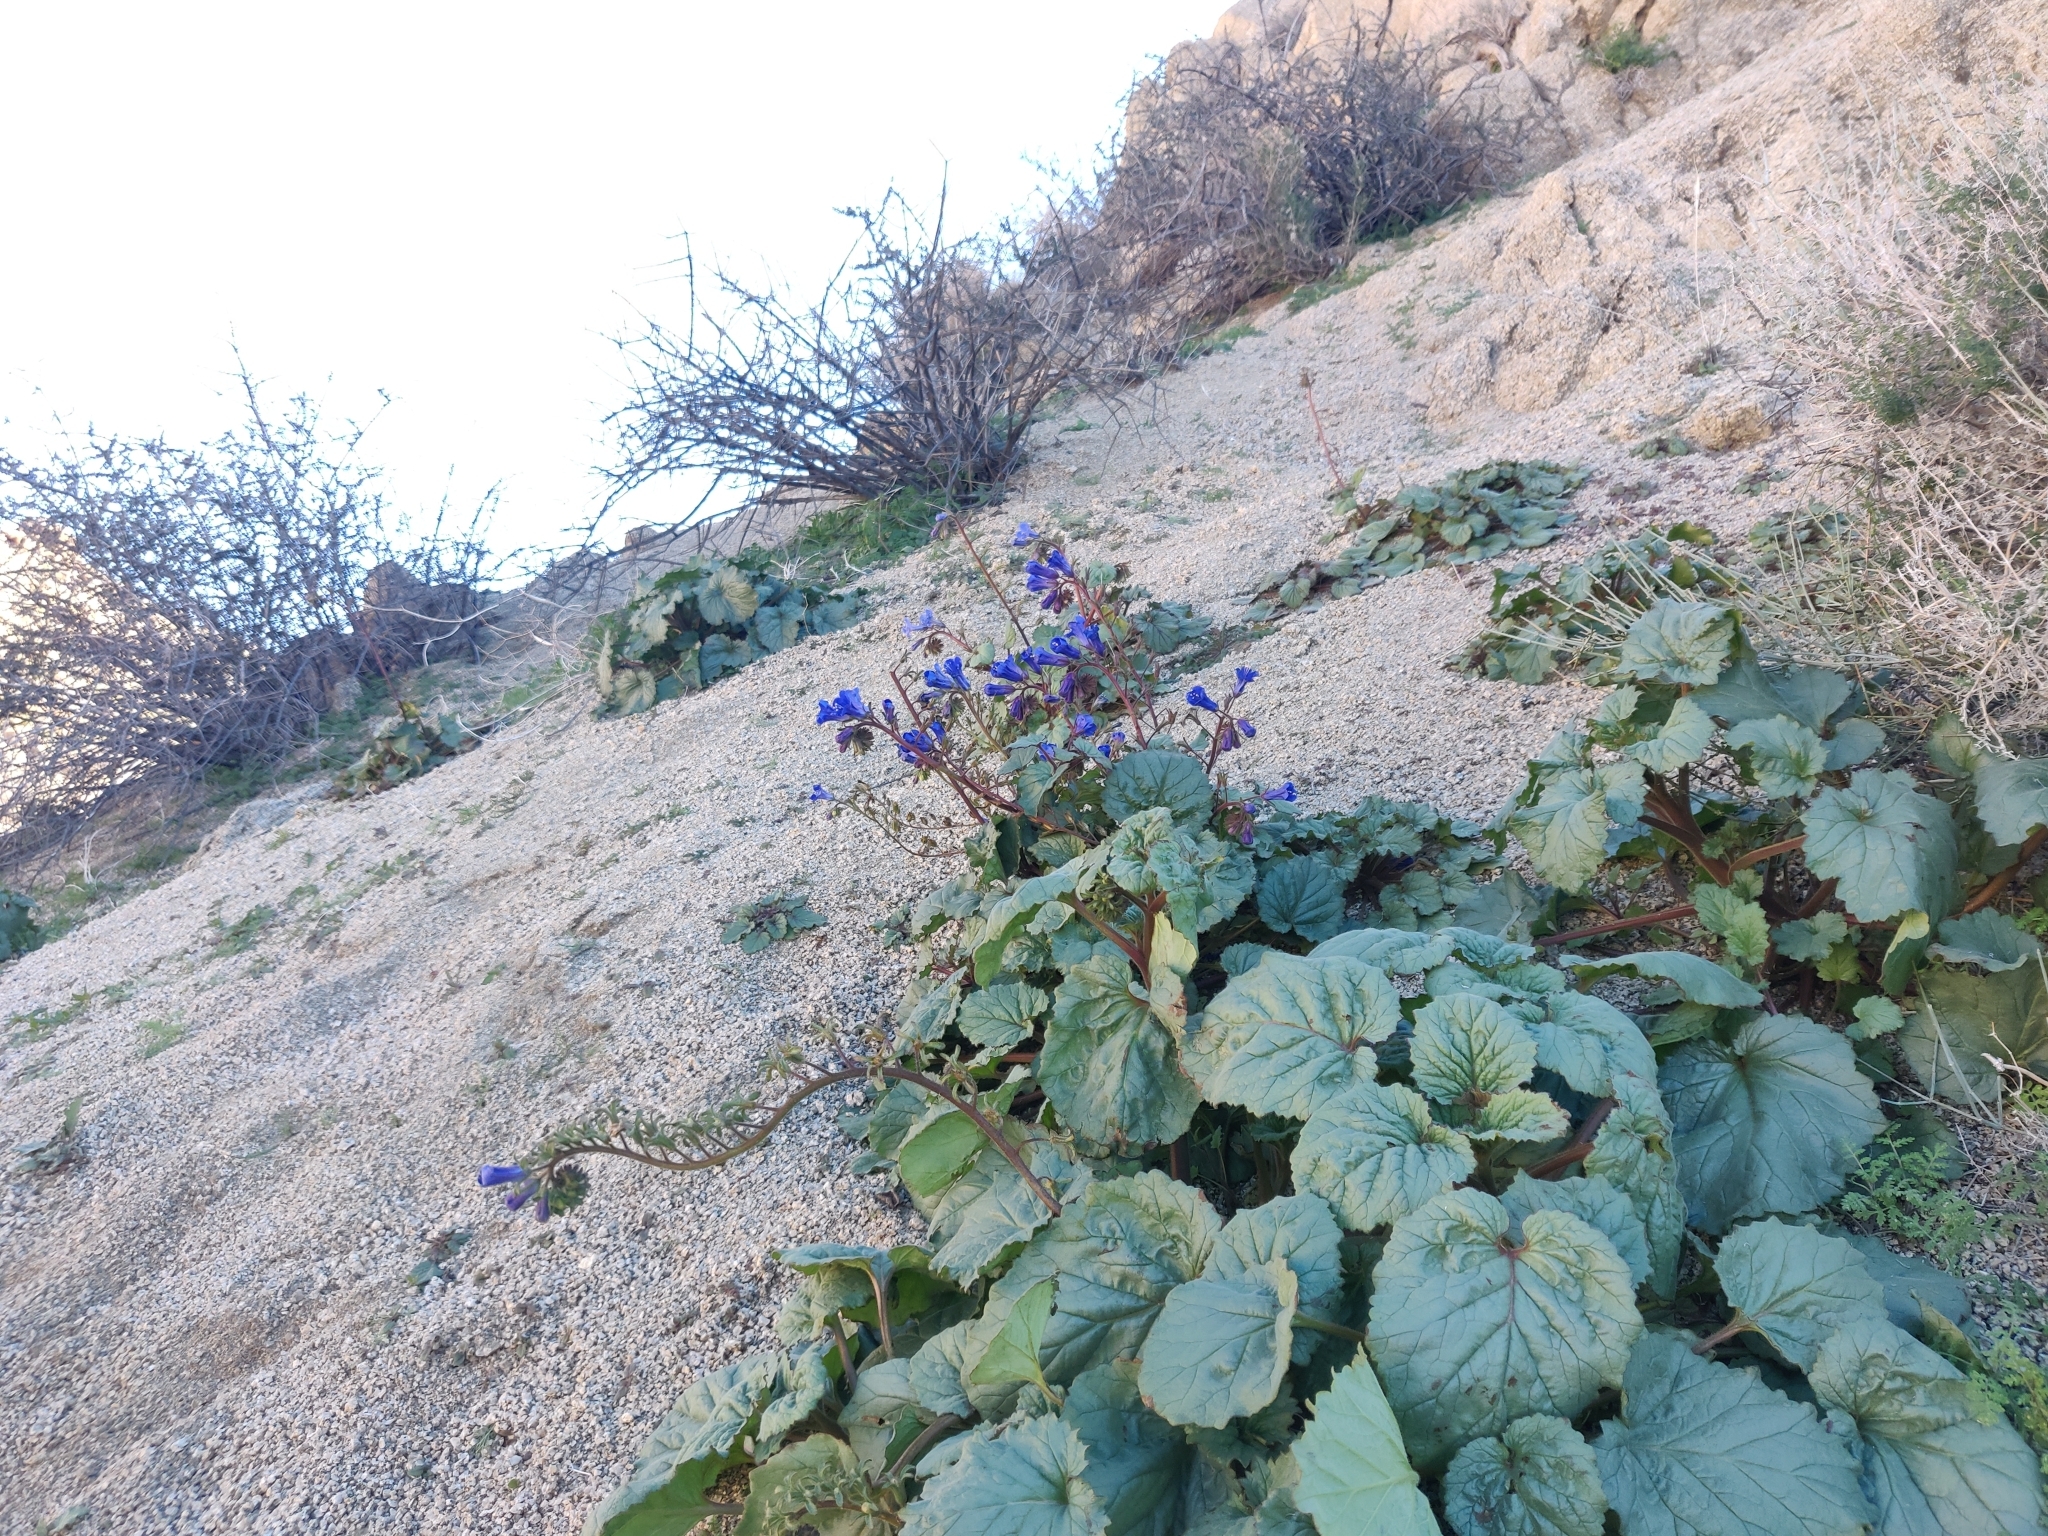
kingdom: Plantae
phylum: Tracheophyta
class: Magnoliopsida
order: Boraginales
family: Hydrophyllaceae
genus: Phacelia
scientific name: Phacelia campanularia
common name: California bluebell
